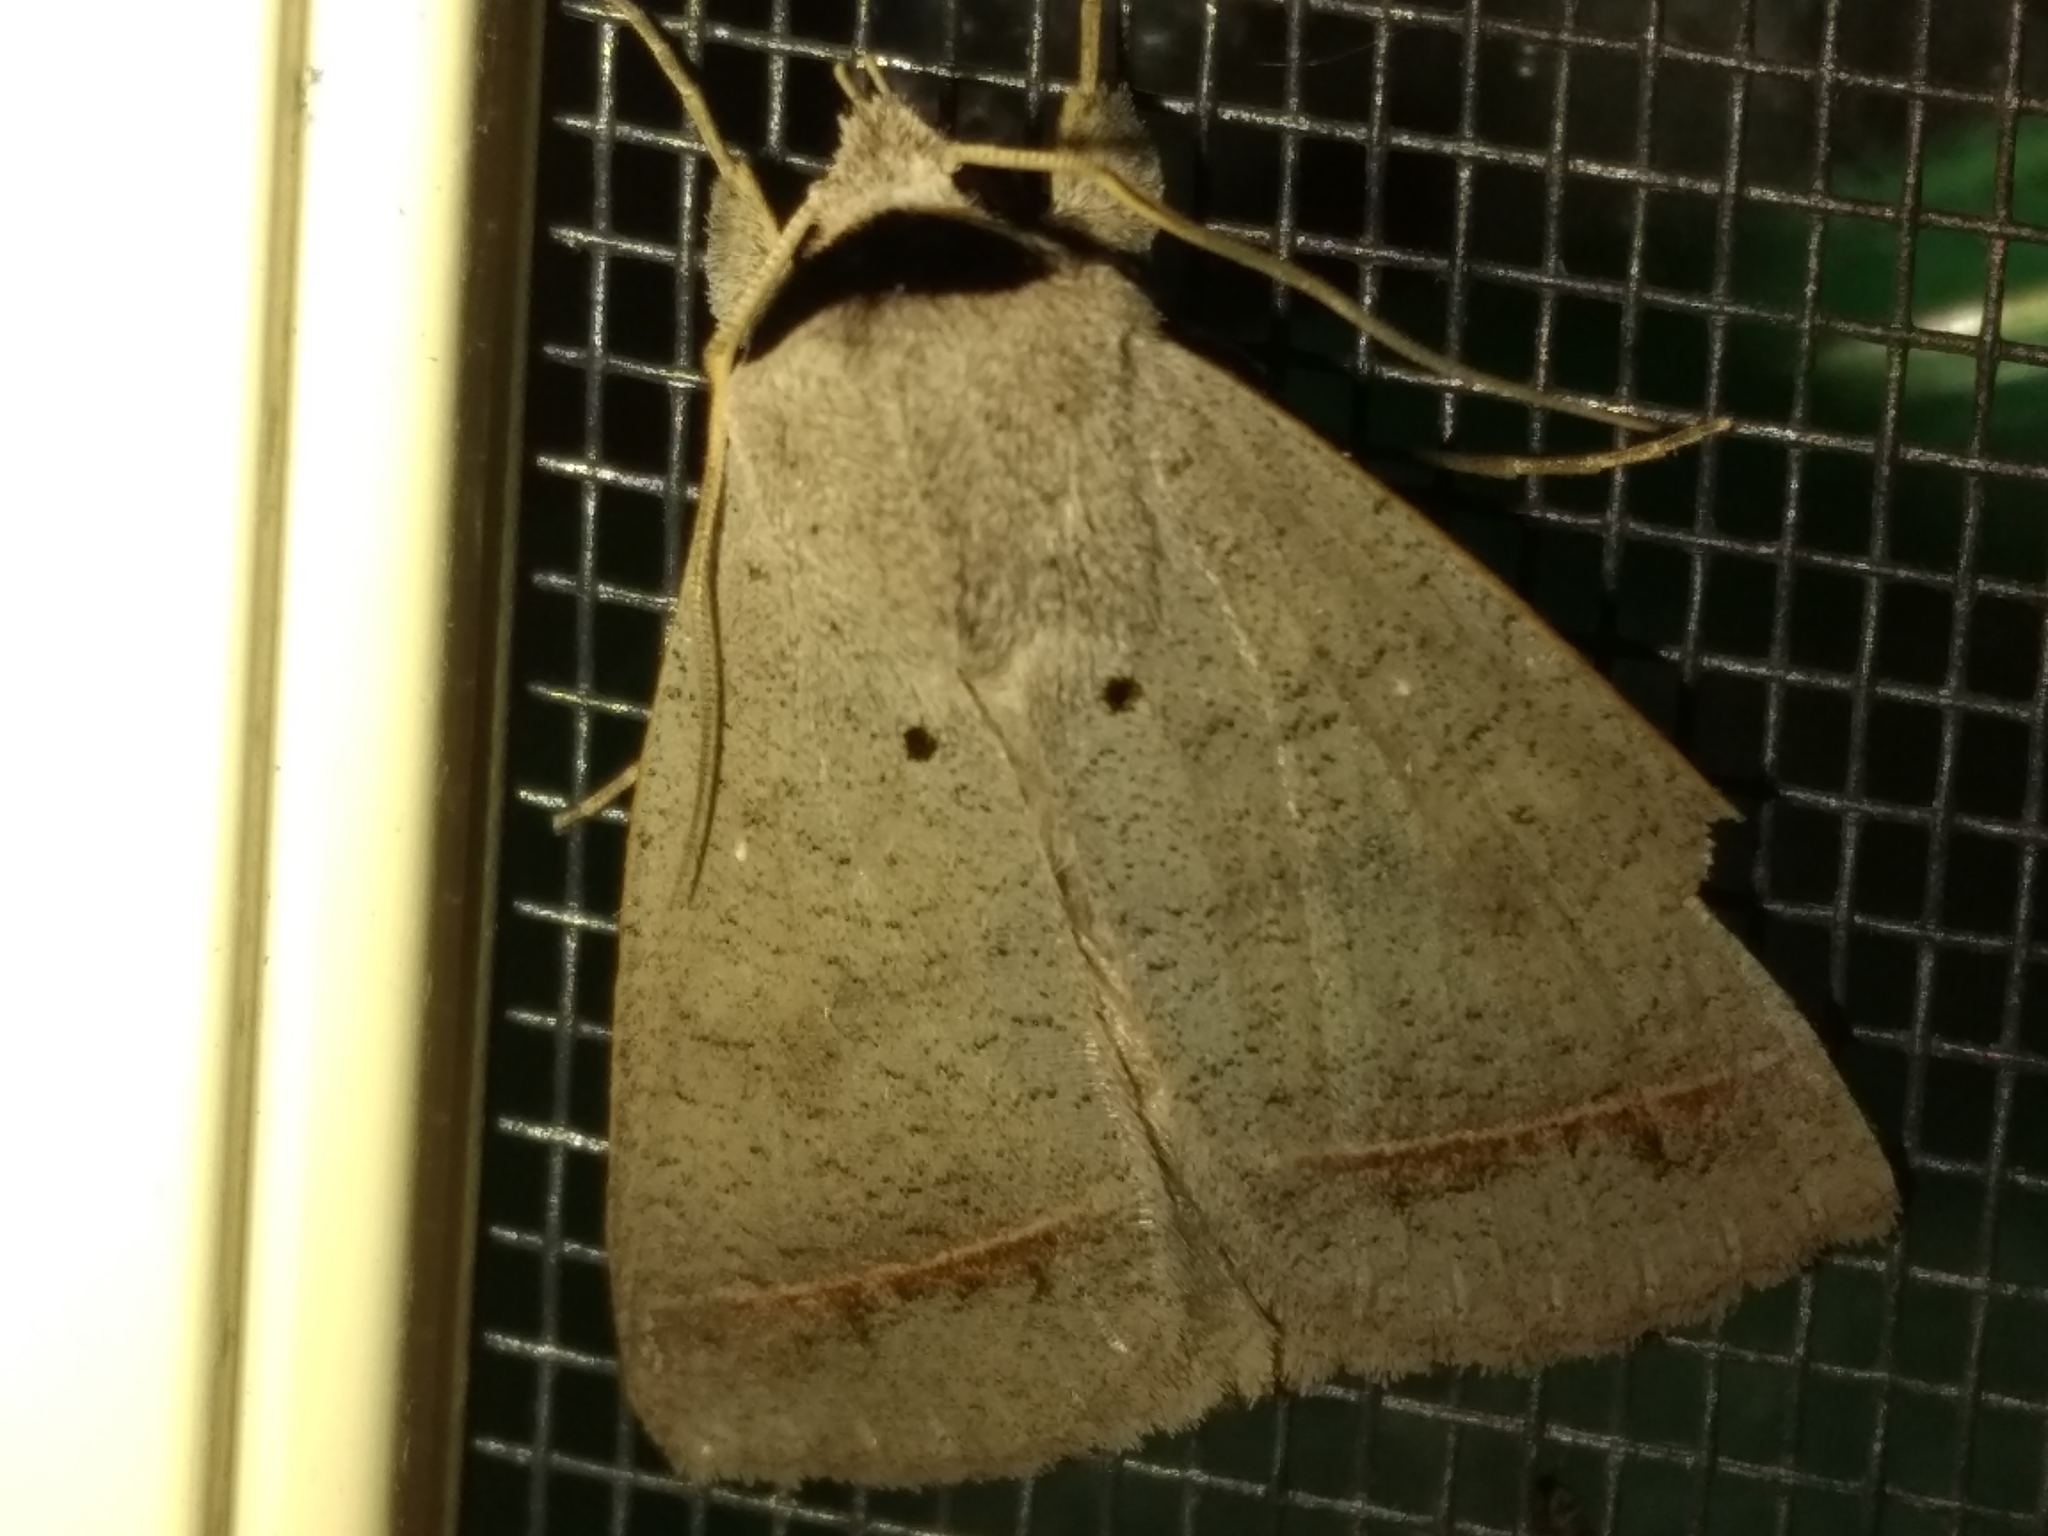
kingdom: Animalia
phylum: Arthropoda
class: Insecta
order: Lepidoptera
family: Erebidae
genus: Pantydia
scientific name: Pantydia capistrata
